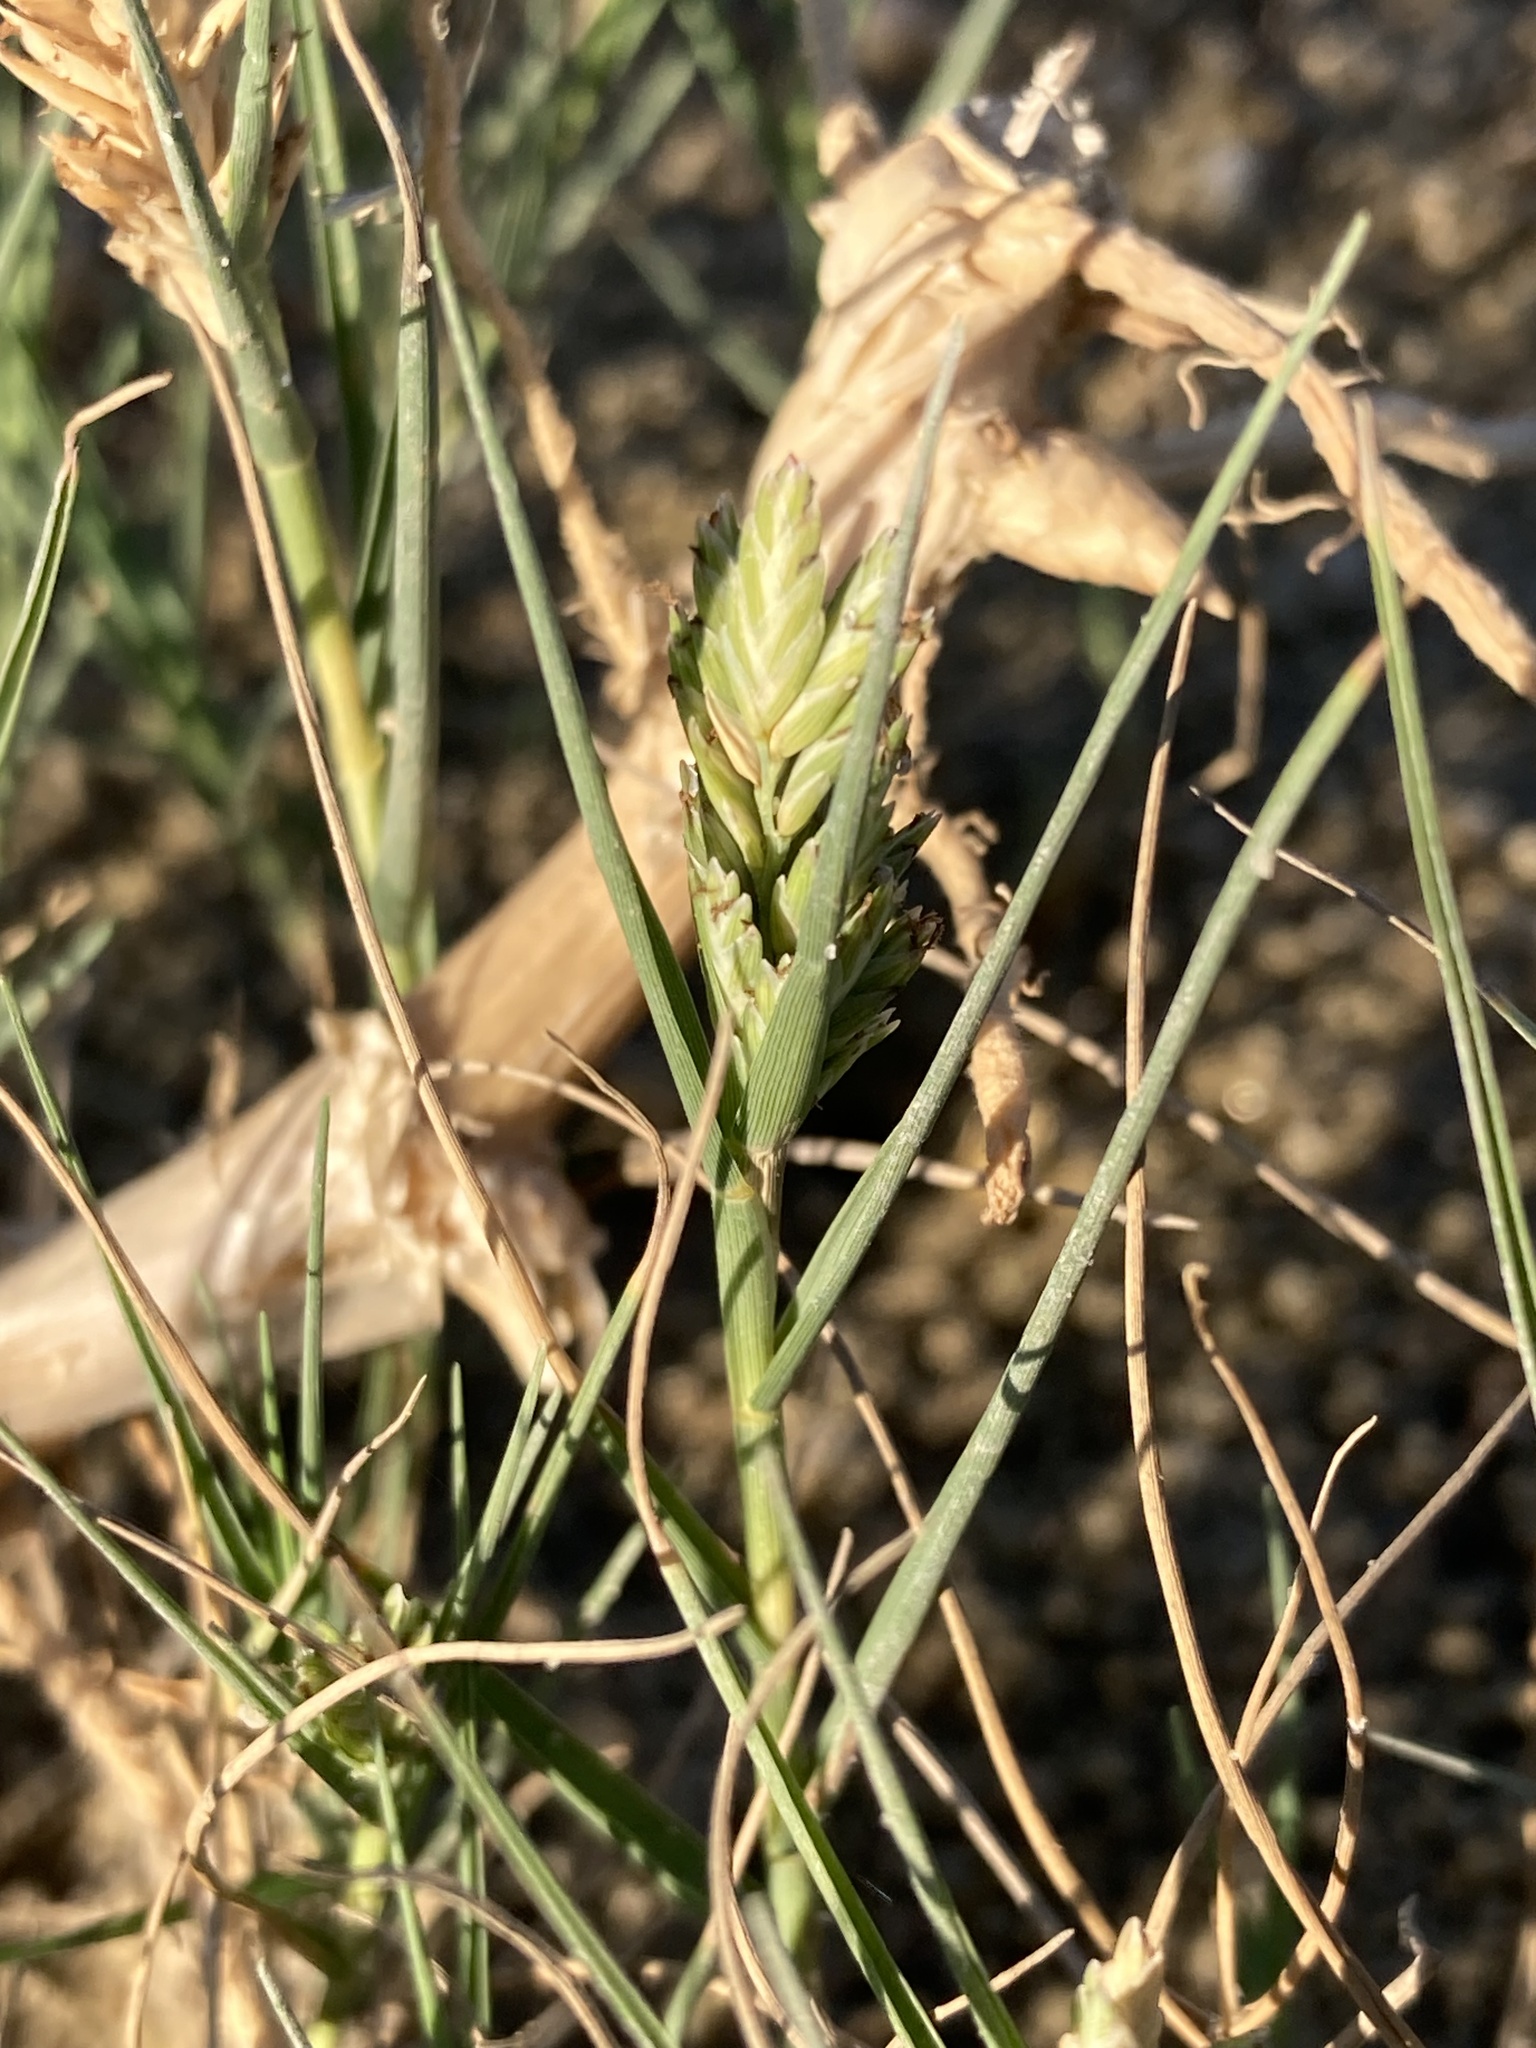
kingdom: Plantae
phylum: Tracheophyta
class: Liliopsida
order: Poales
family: Poaceae
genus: Distichlis
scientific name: Distichlis spicata
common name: Saltgrass
